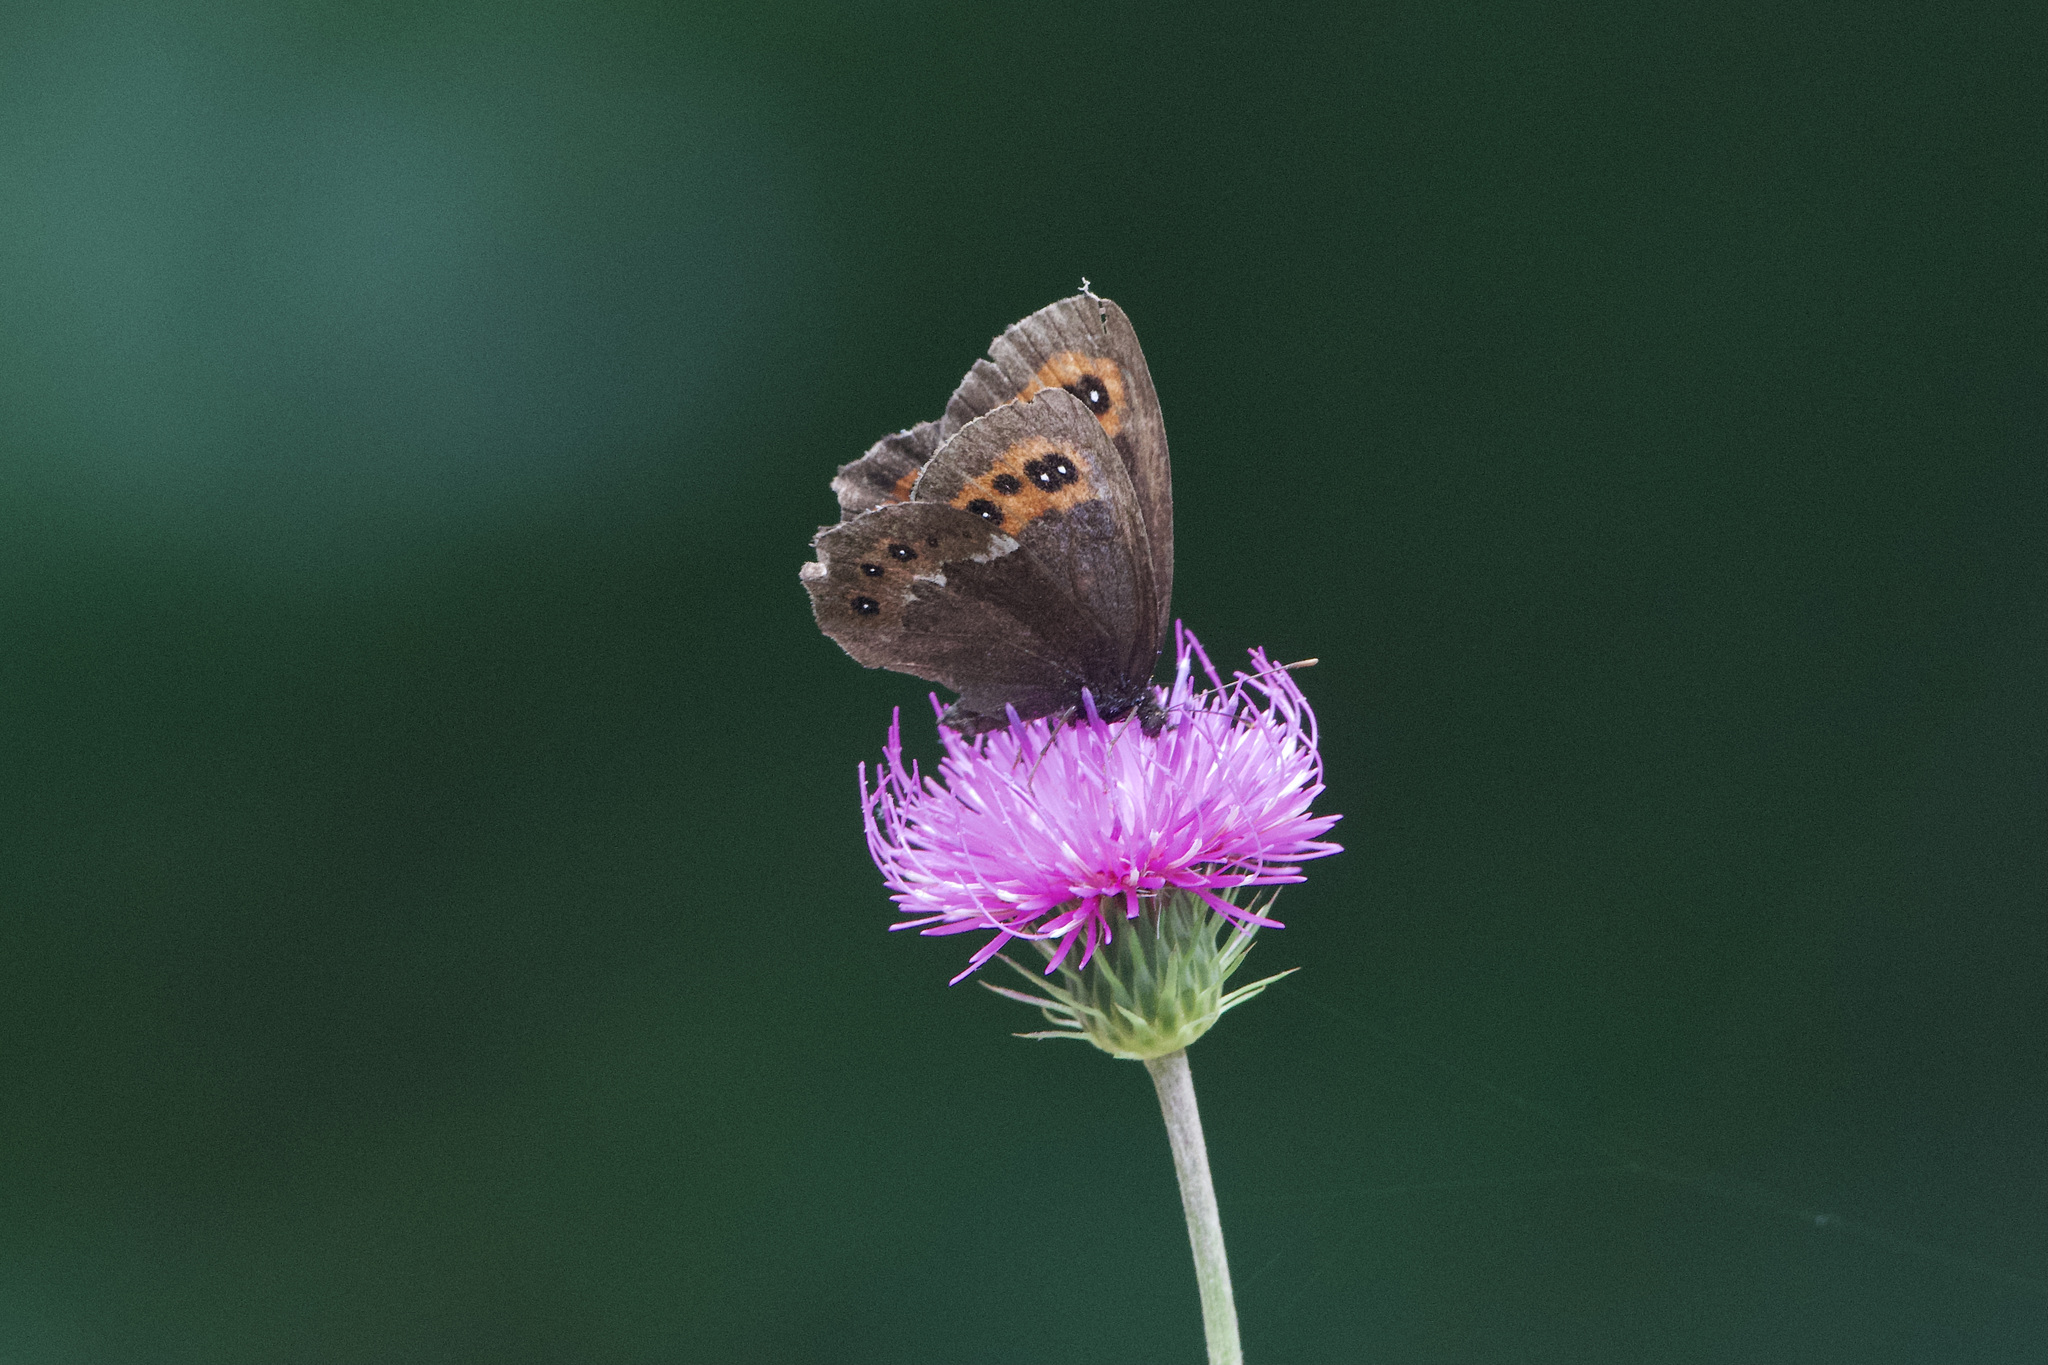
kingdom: Animalia
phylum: Arthropoda
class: Insecta
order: Lepidoptera
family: Nymphalidae
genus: Erebia
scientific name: Erebia ligea
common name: Arran brown
